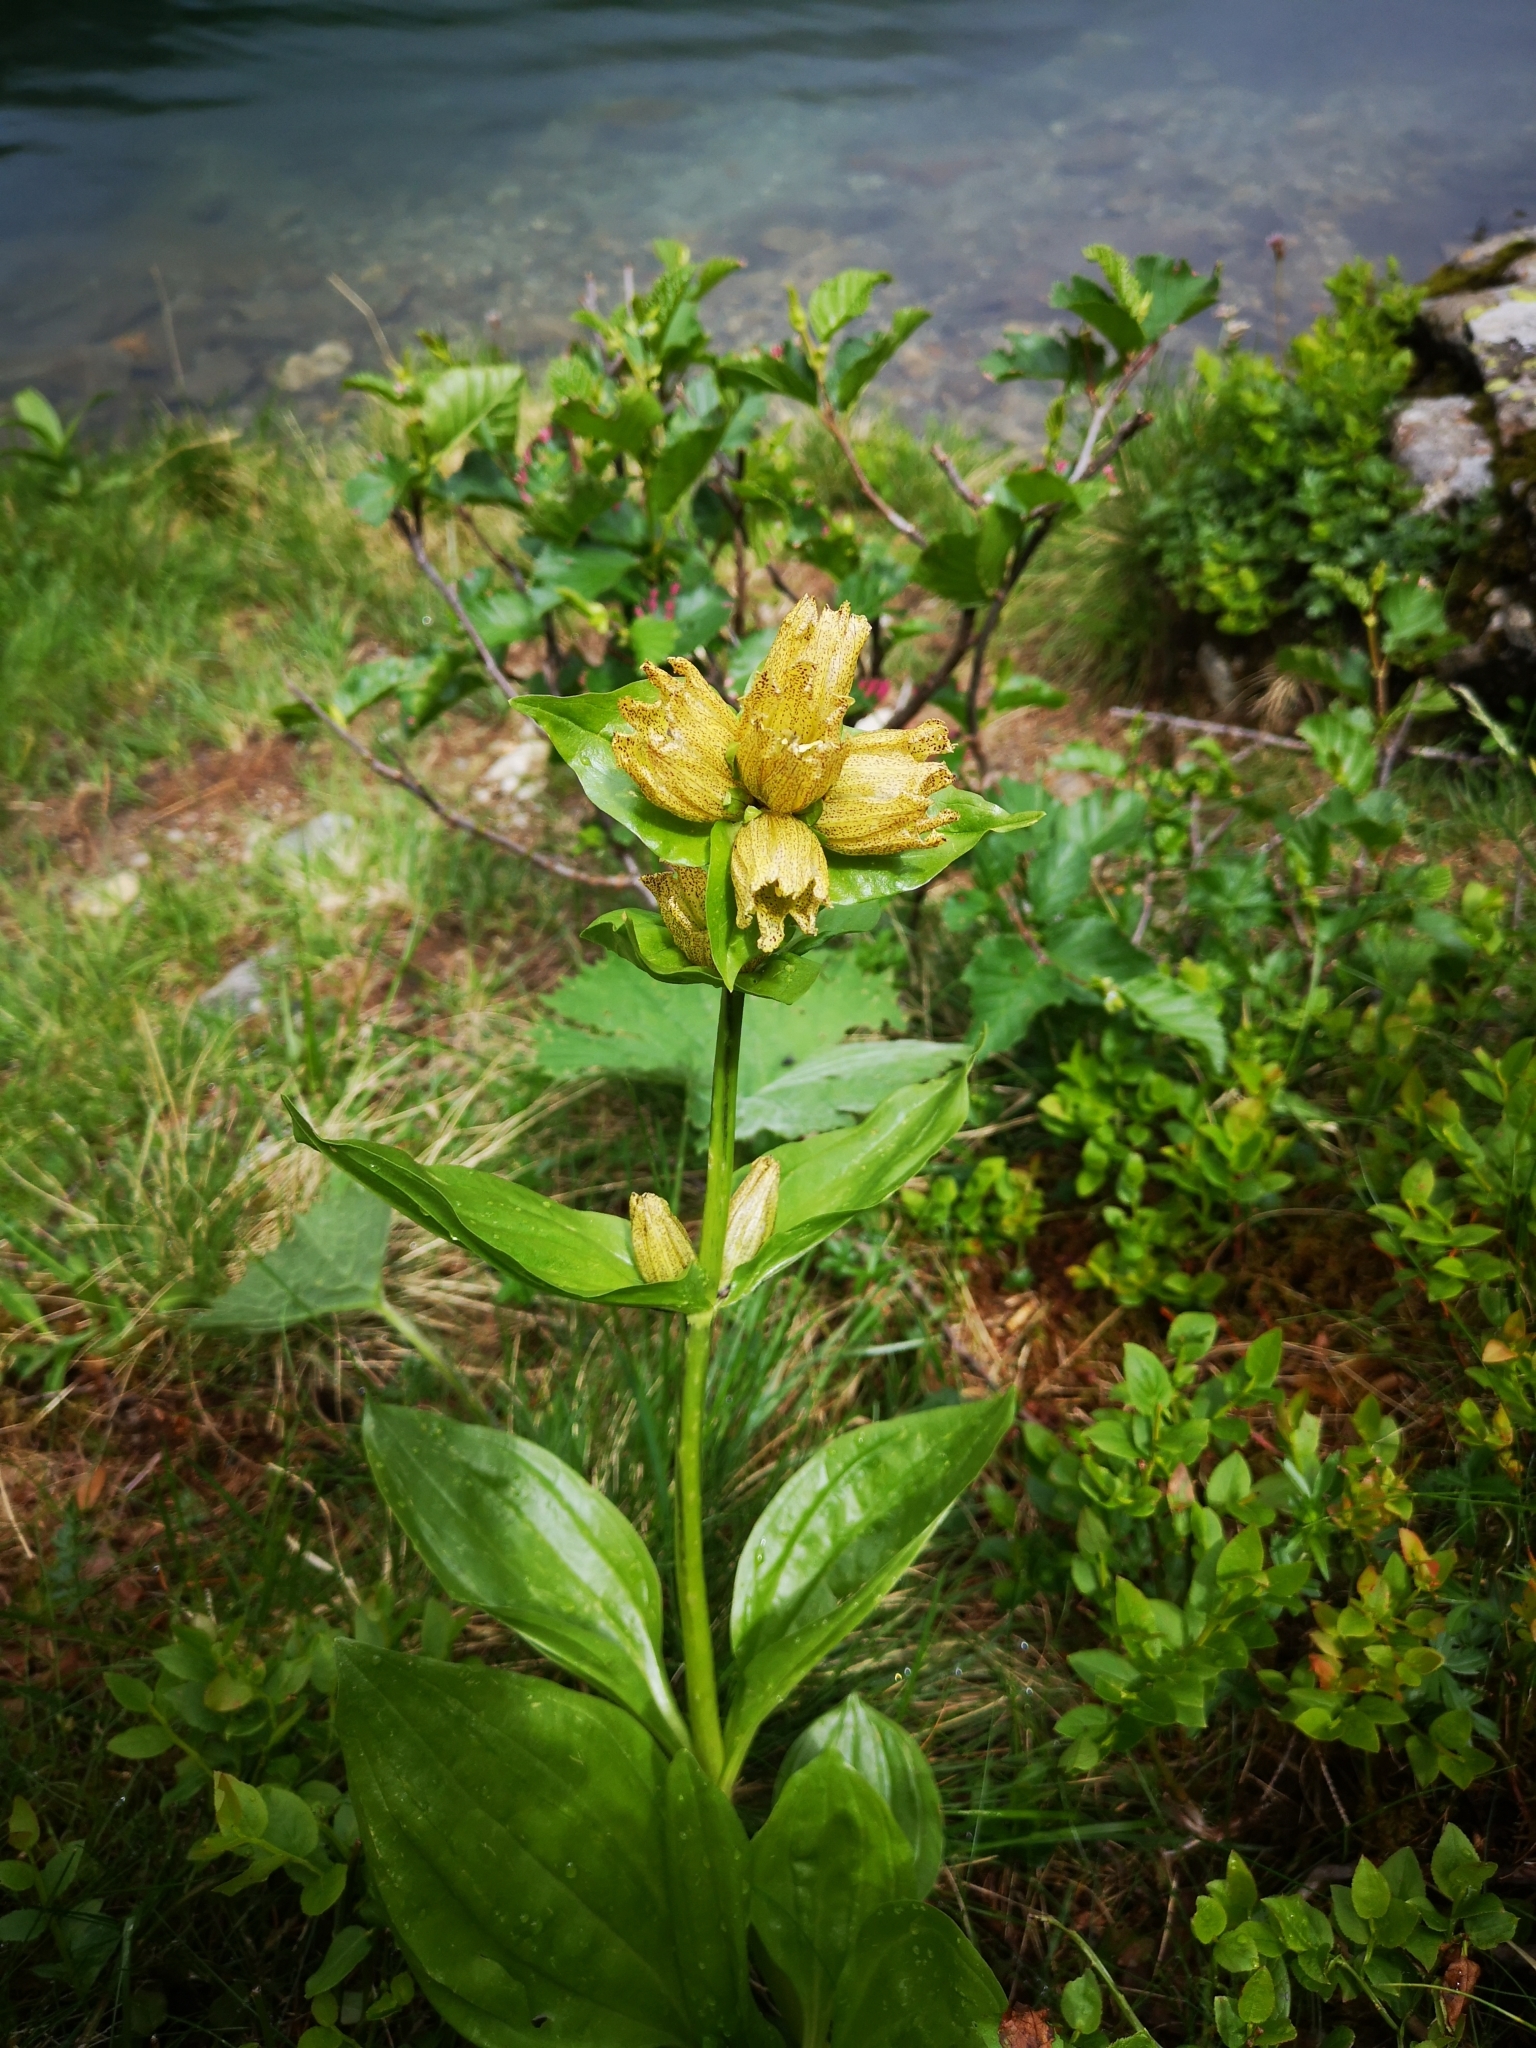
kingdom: Plantae
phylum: Tracheophyta
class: Magnoliopsida
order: Gentianales
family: Gentianaceae
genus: Gentiana
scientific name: Gentiana punctata
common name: Spotted gentian
